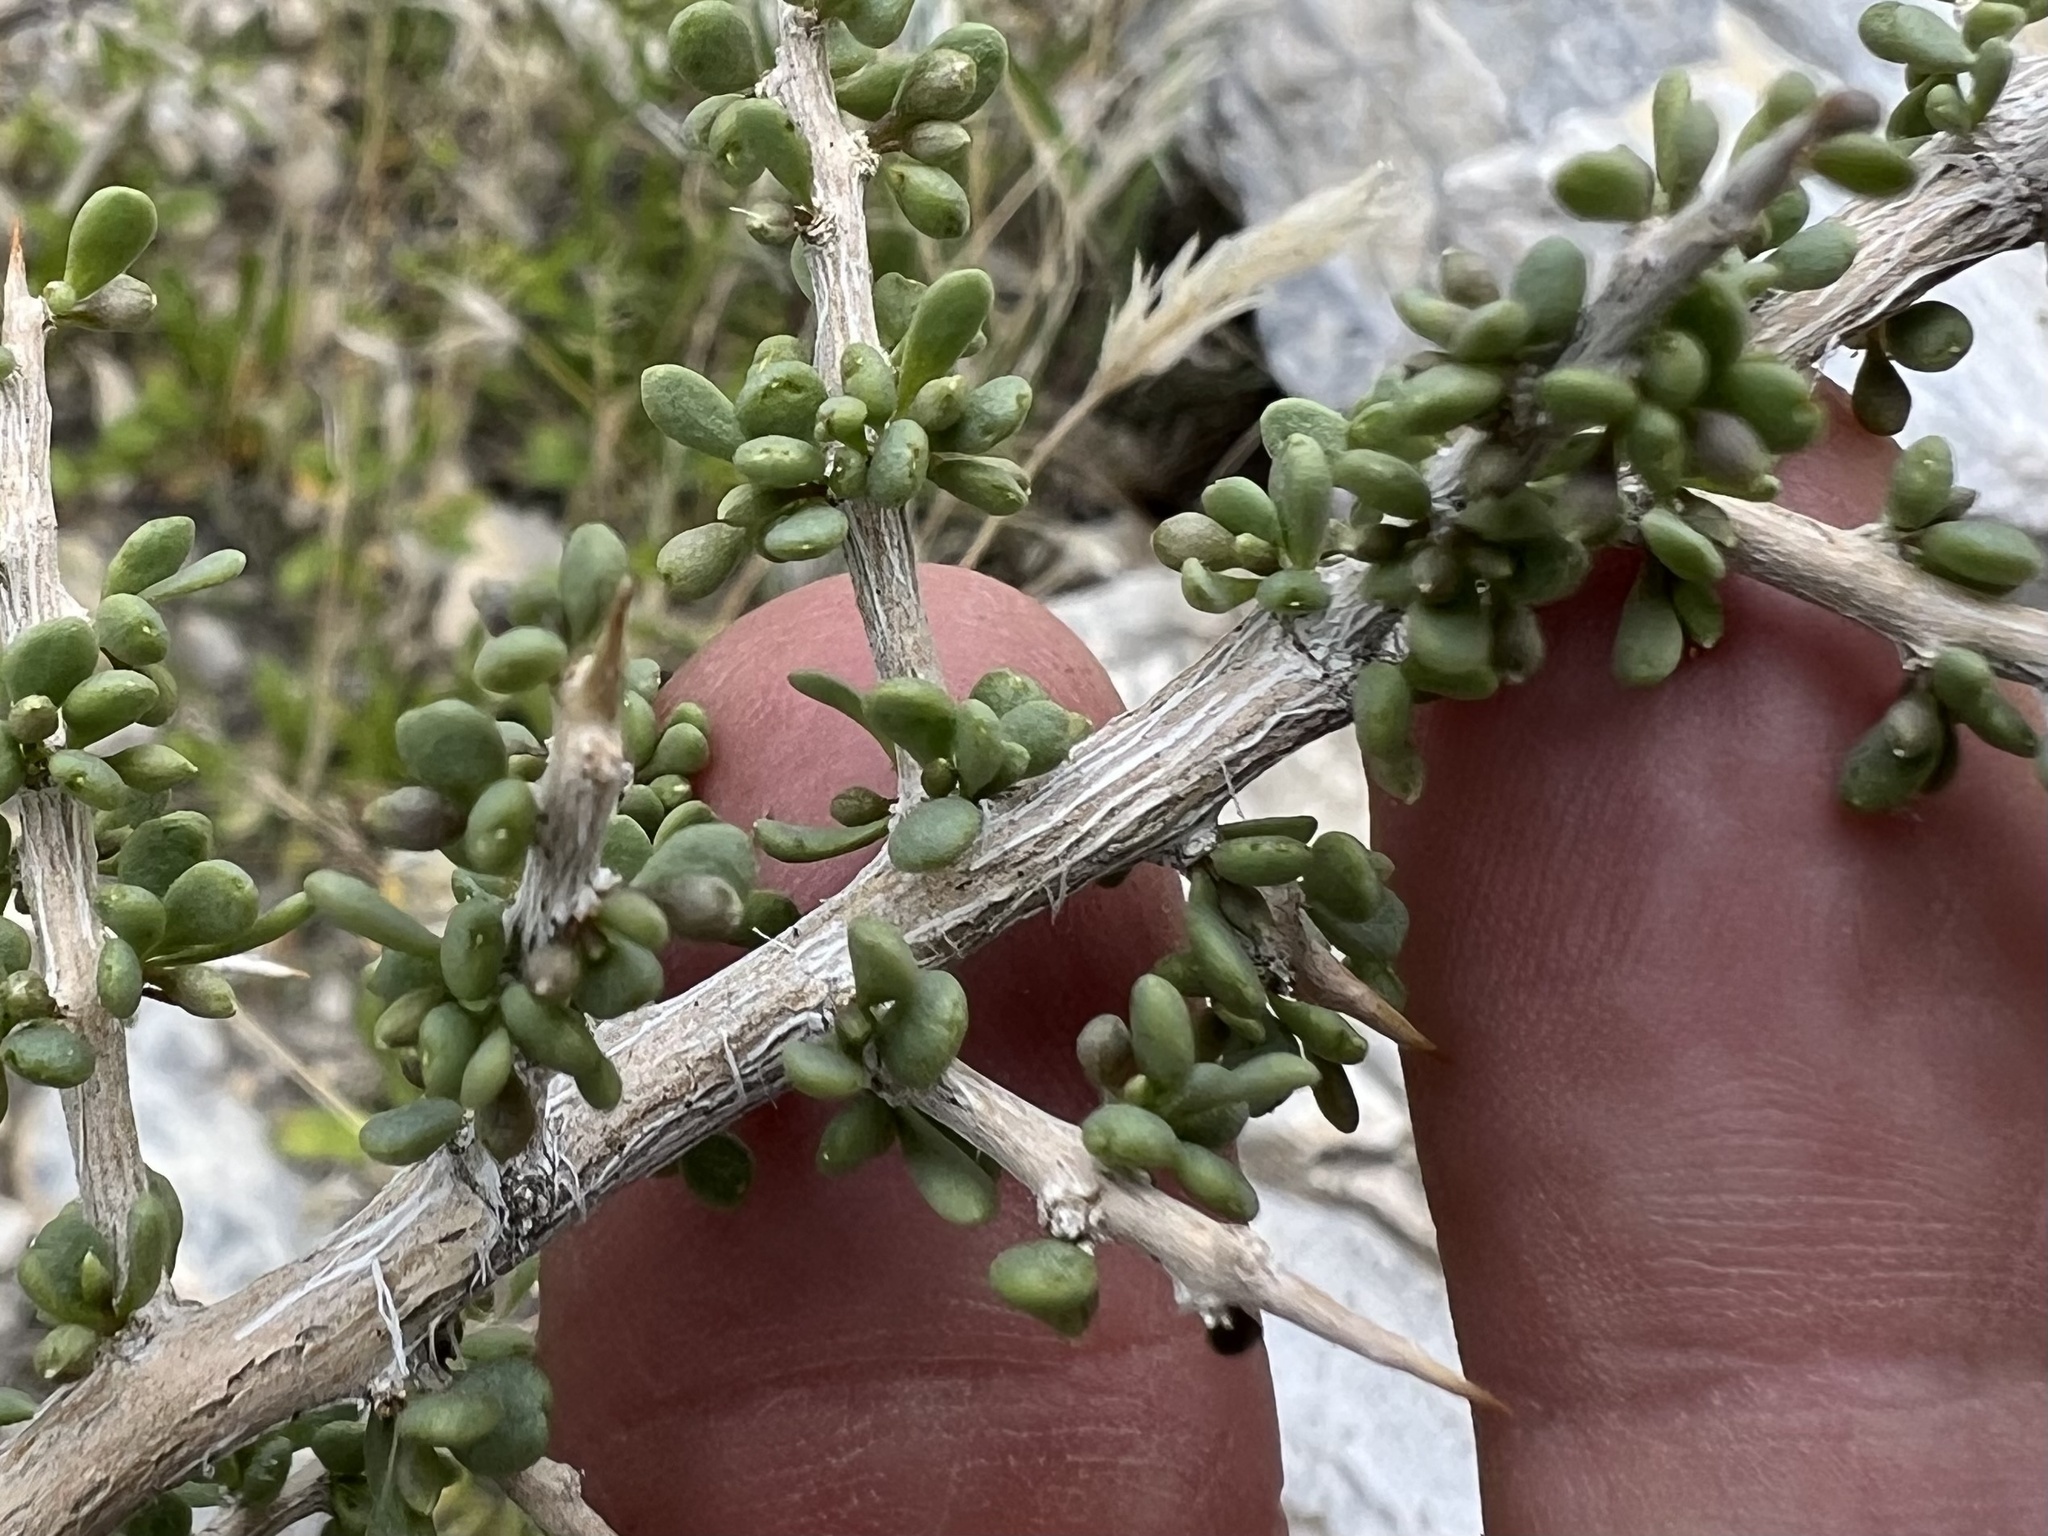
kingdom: Plantae
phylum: Tracheophyta
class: Magnoliopsida
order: Solanales
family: Solanaceae
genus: Lycium
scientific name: Lycium andersonii
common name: Water-jacket
